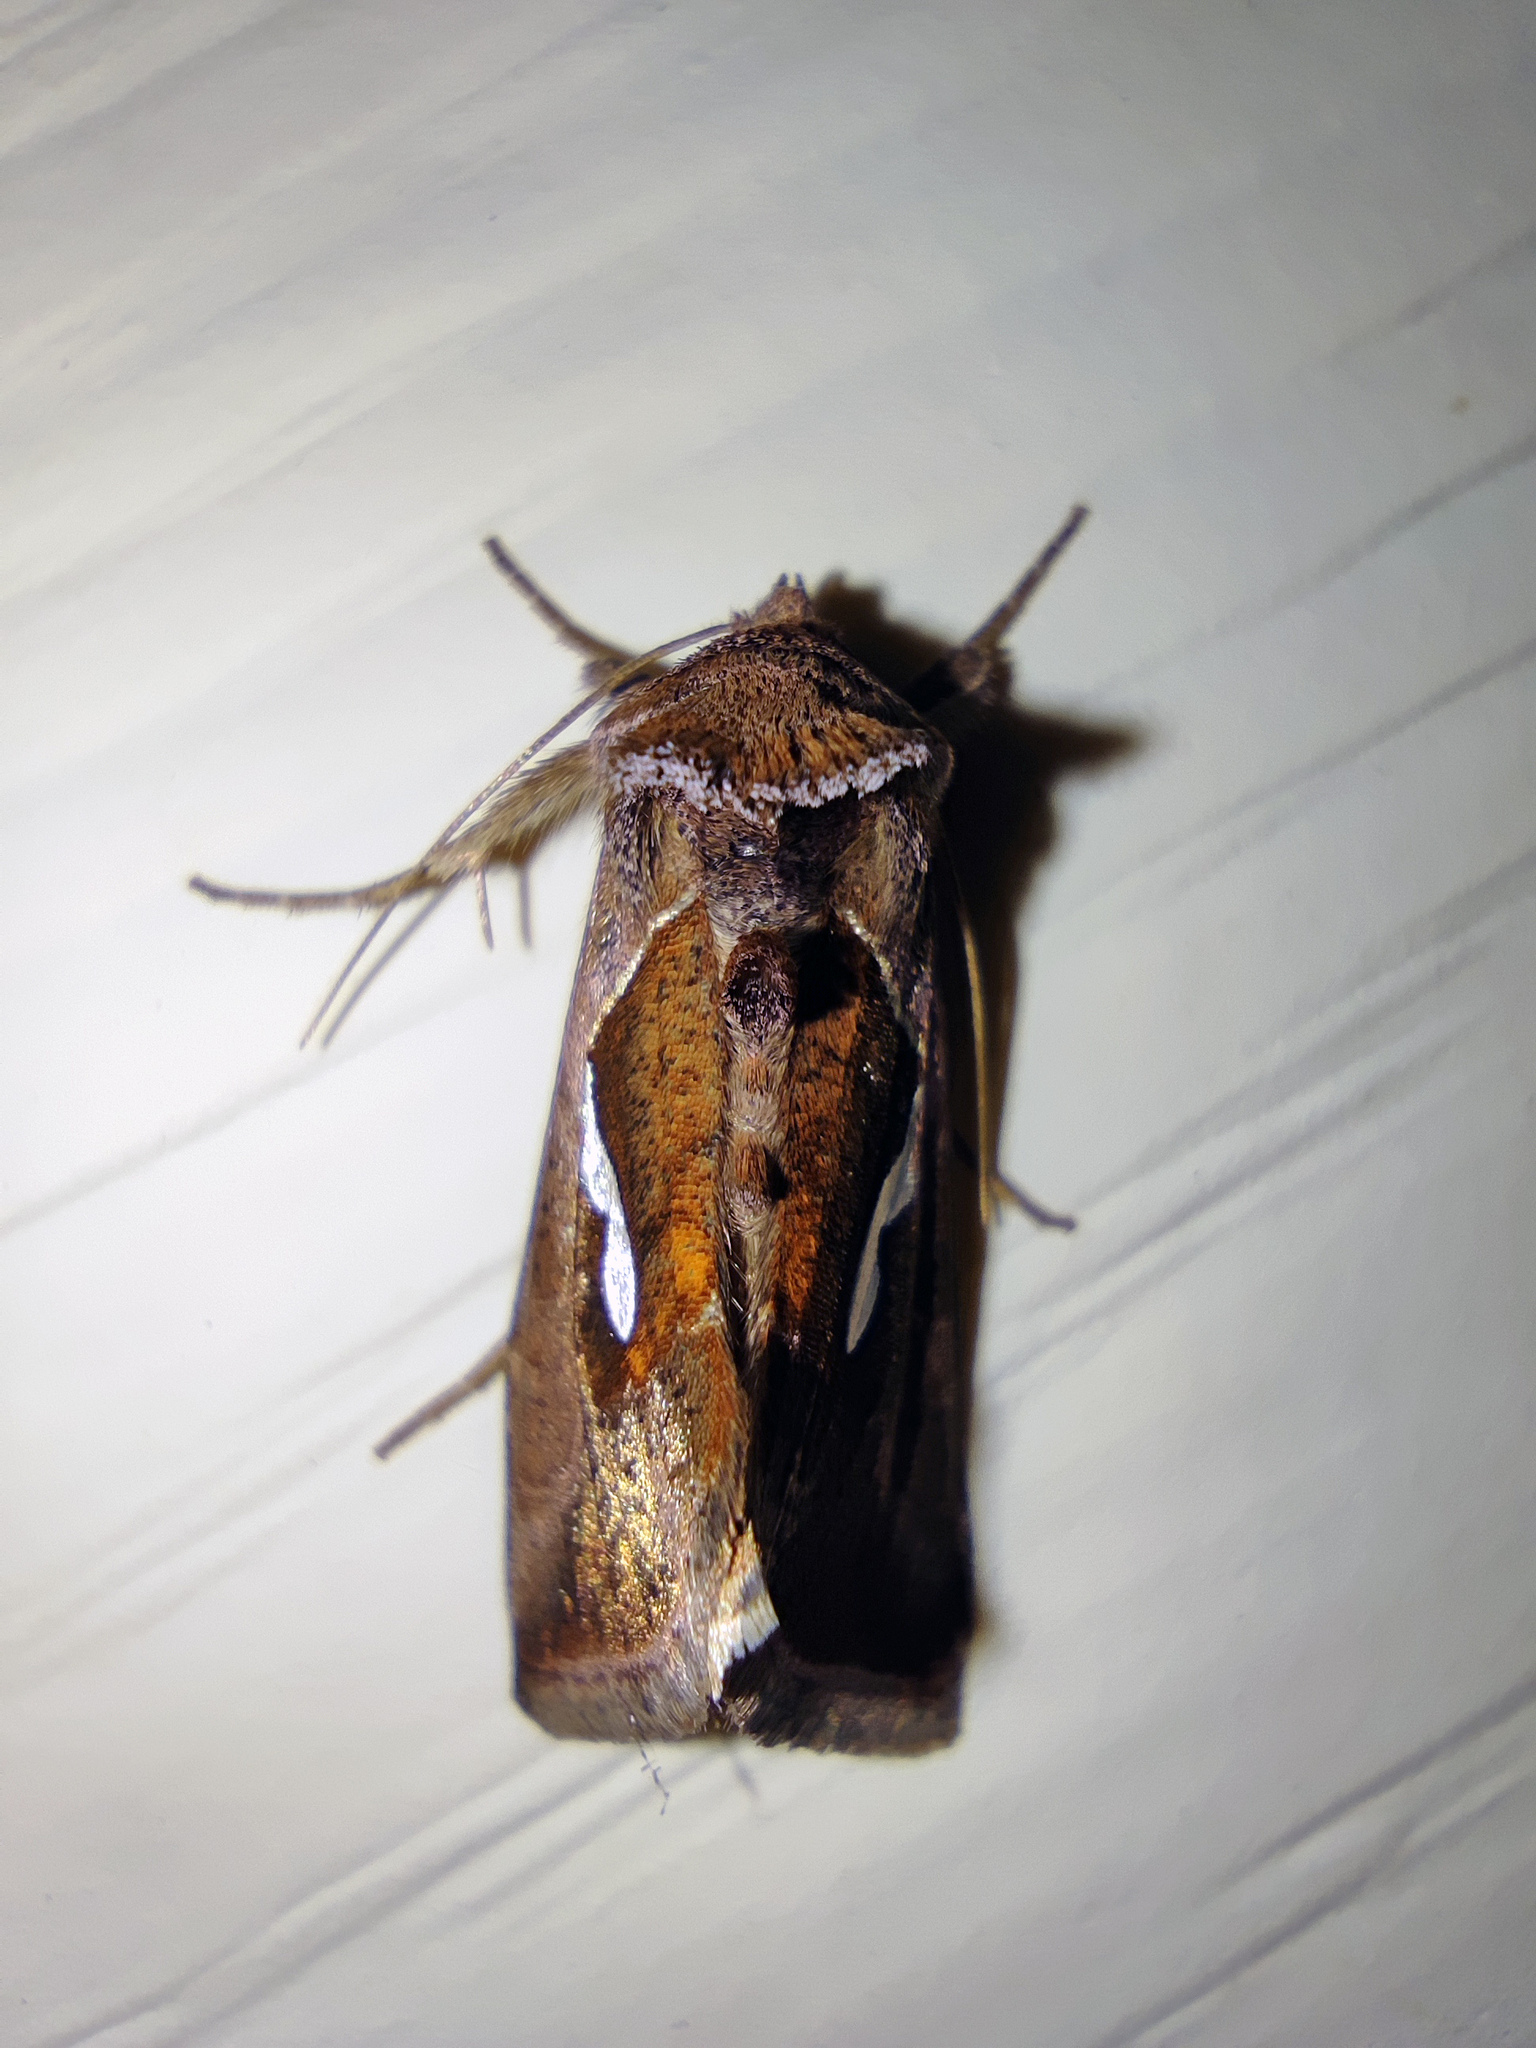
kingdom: Animalia
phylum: Arthropoda
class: Insecta
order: Lepidoptera
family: Noctuidae
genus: Macdunnoughia
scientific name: Macdunnoughia confusa
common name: Dewick's plusia
